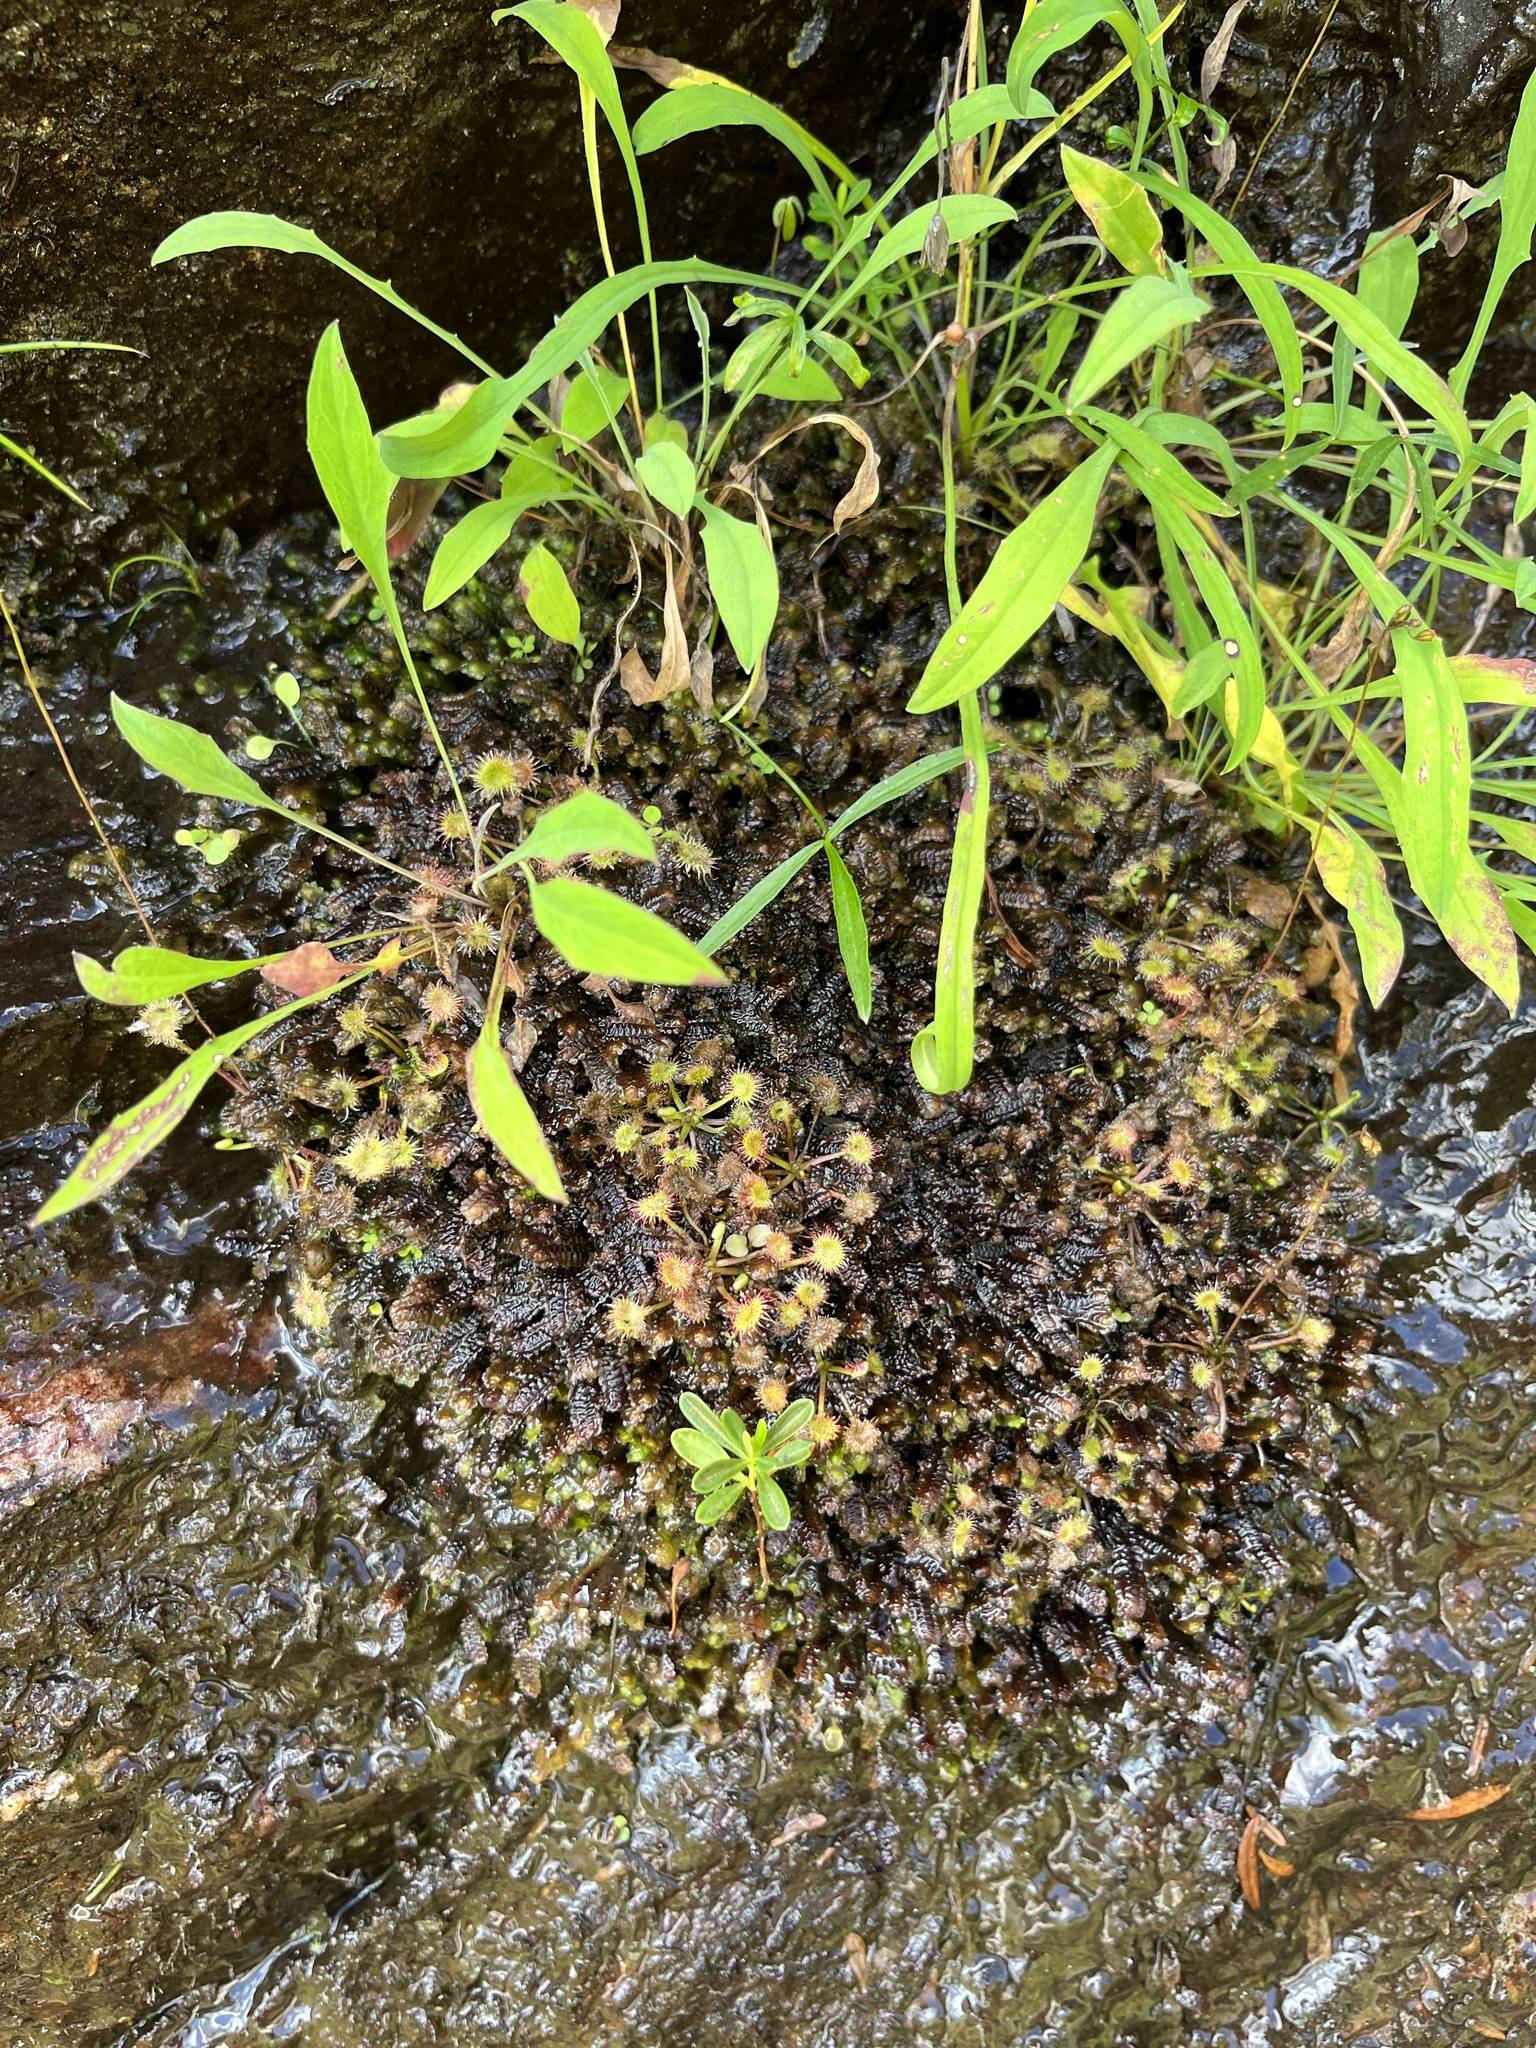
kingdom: Plantae
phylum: Tracheophyta
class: Magnoliopsida
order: Caryophyllales
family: Droseraceae
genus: Drosera
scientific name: Drosera rotundifolia
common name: Round-leaved sundew
